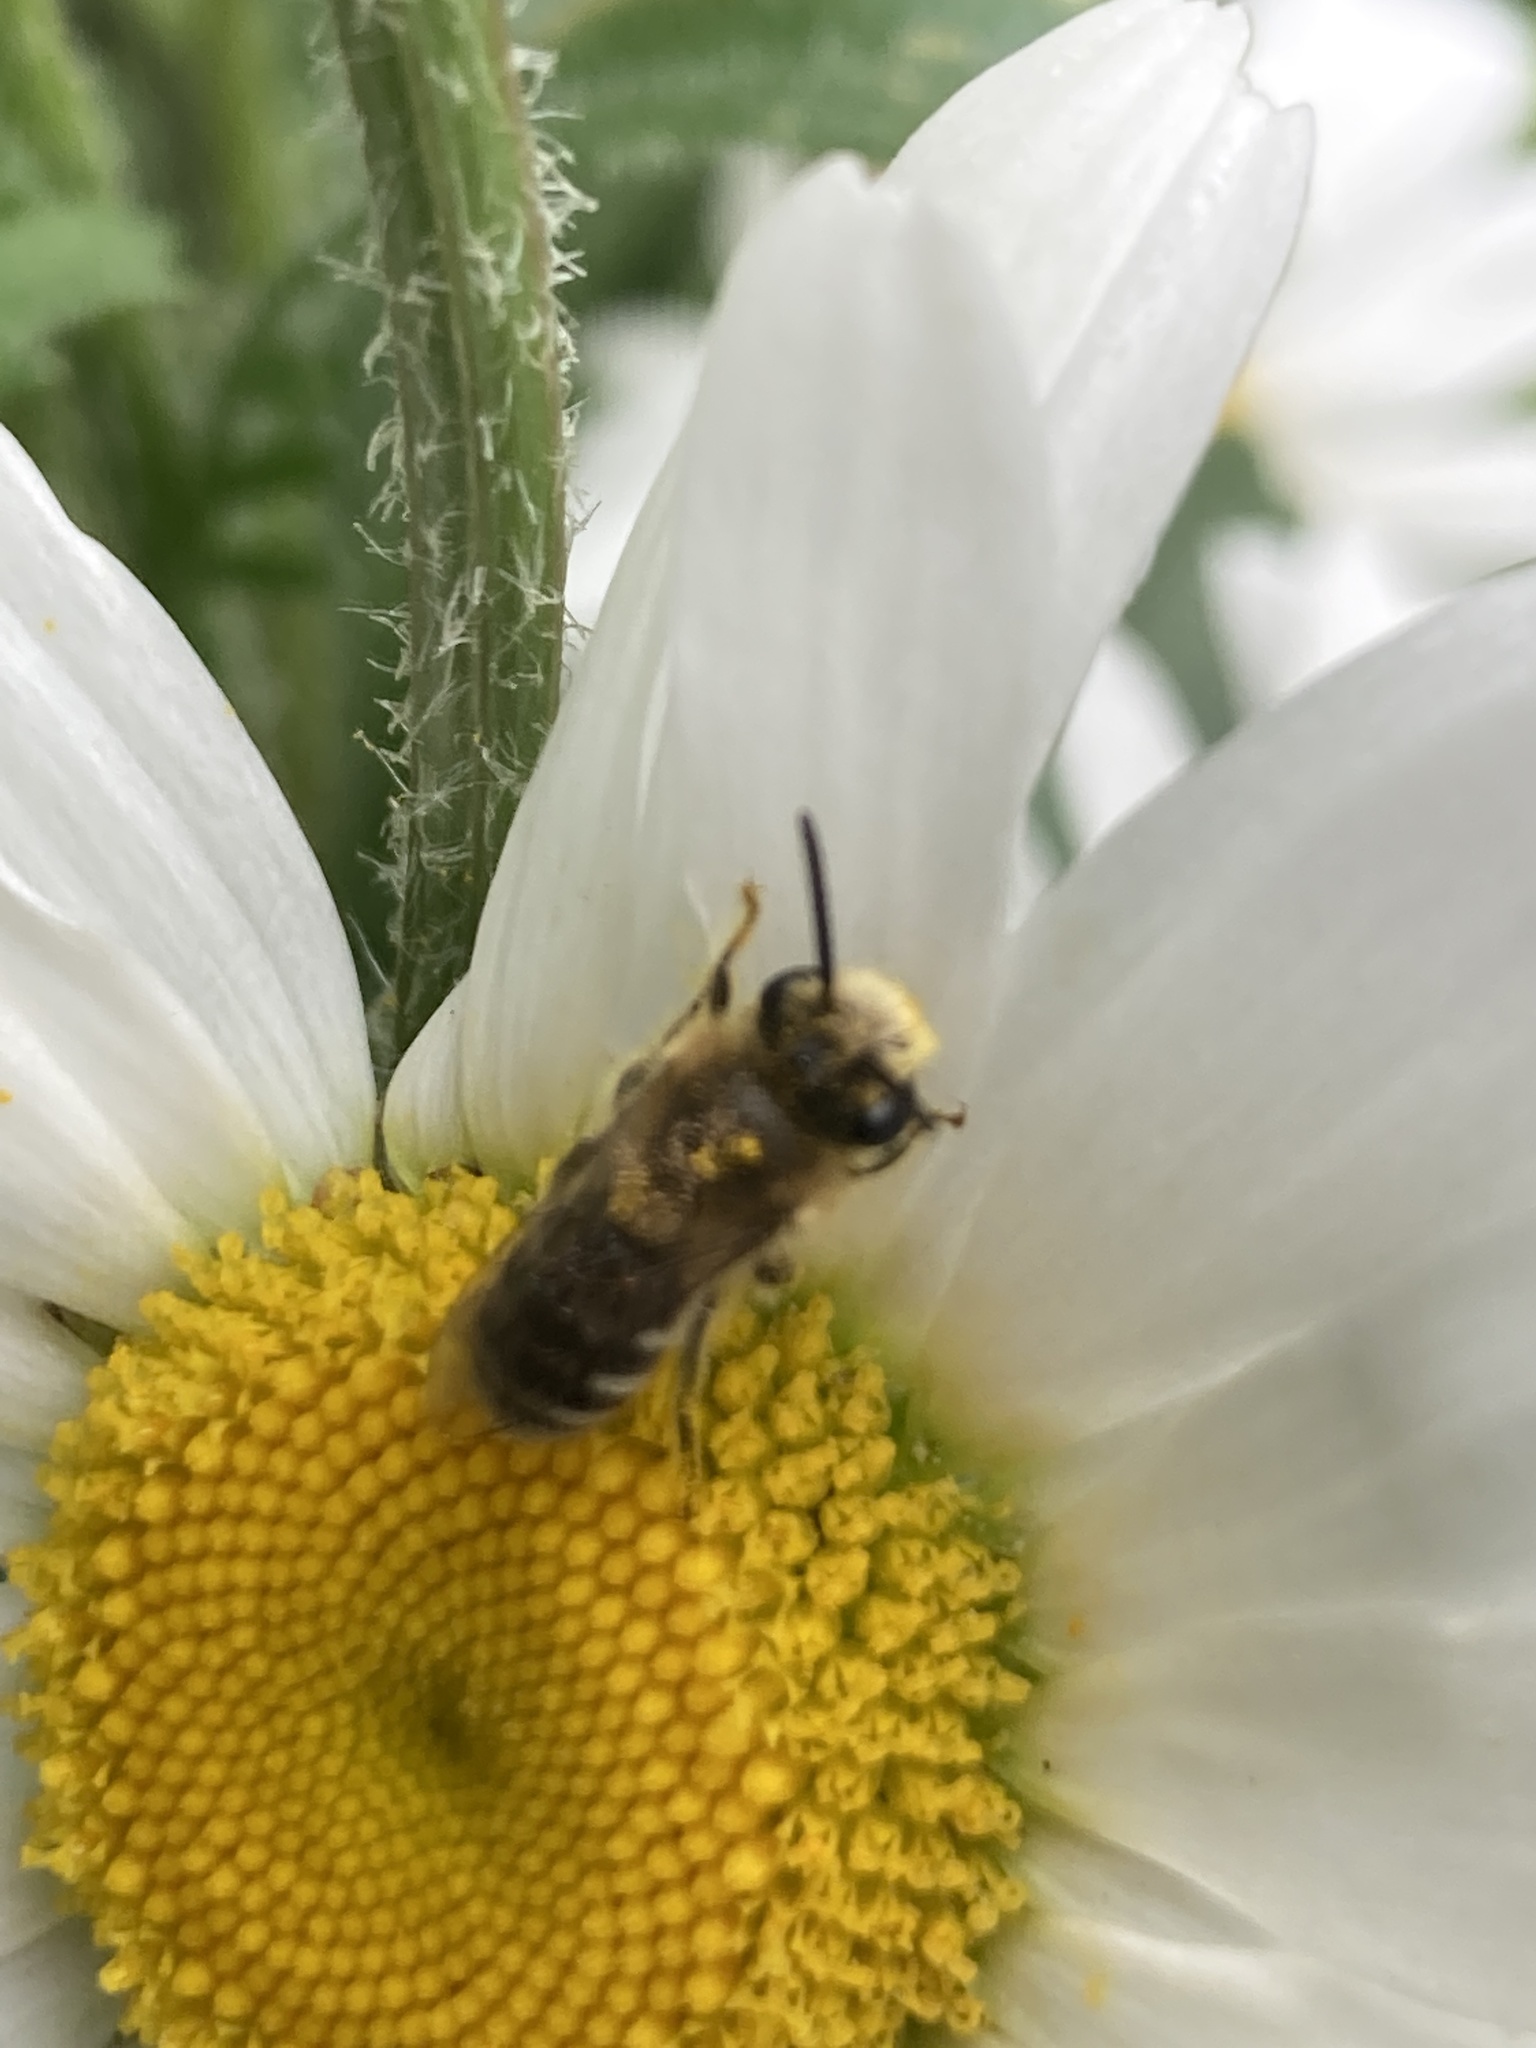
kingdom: Animalia
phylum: Arthropoda
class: Insecta
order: Hymenoptera
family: Colletidae
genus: Colletes
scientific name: Colletes
